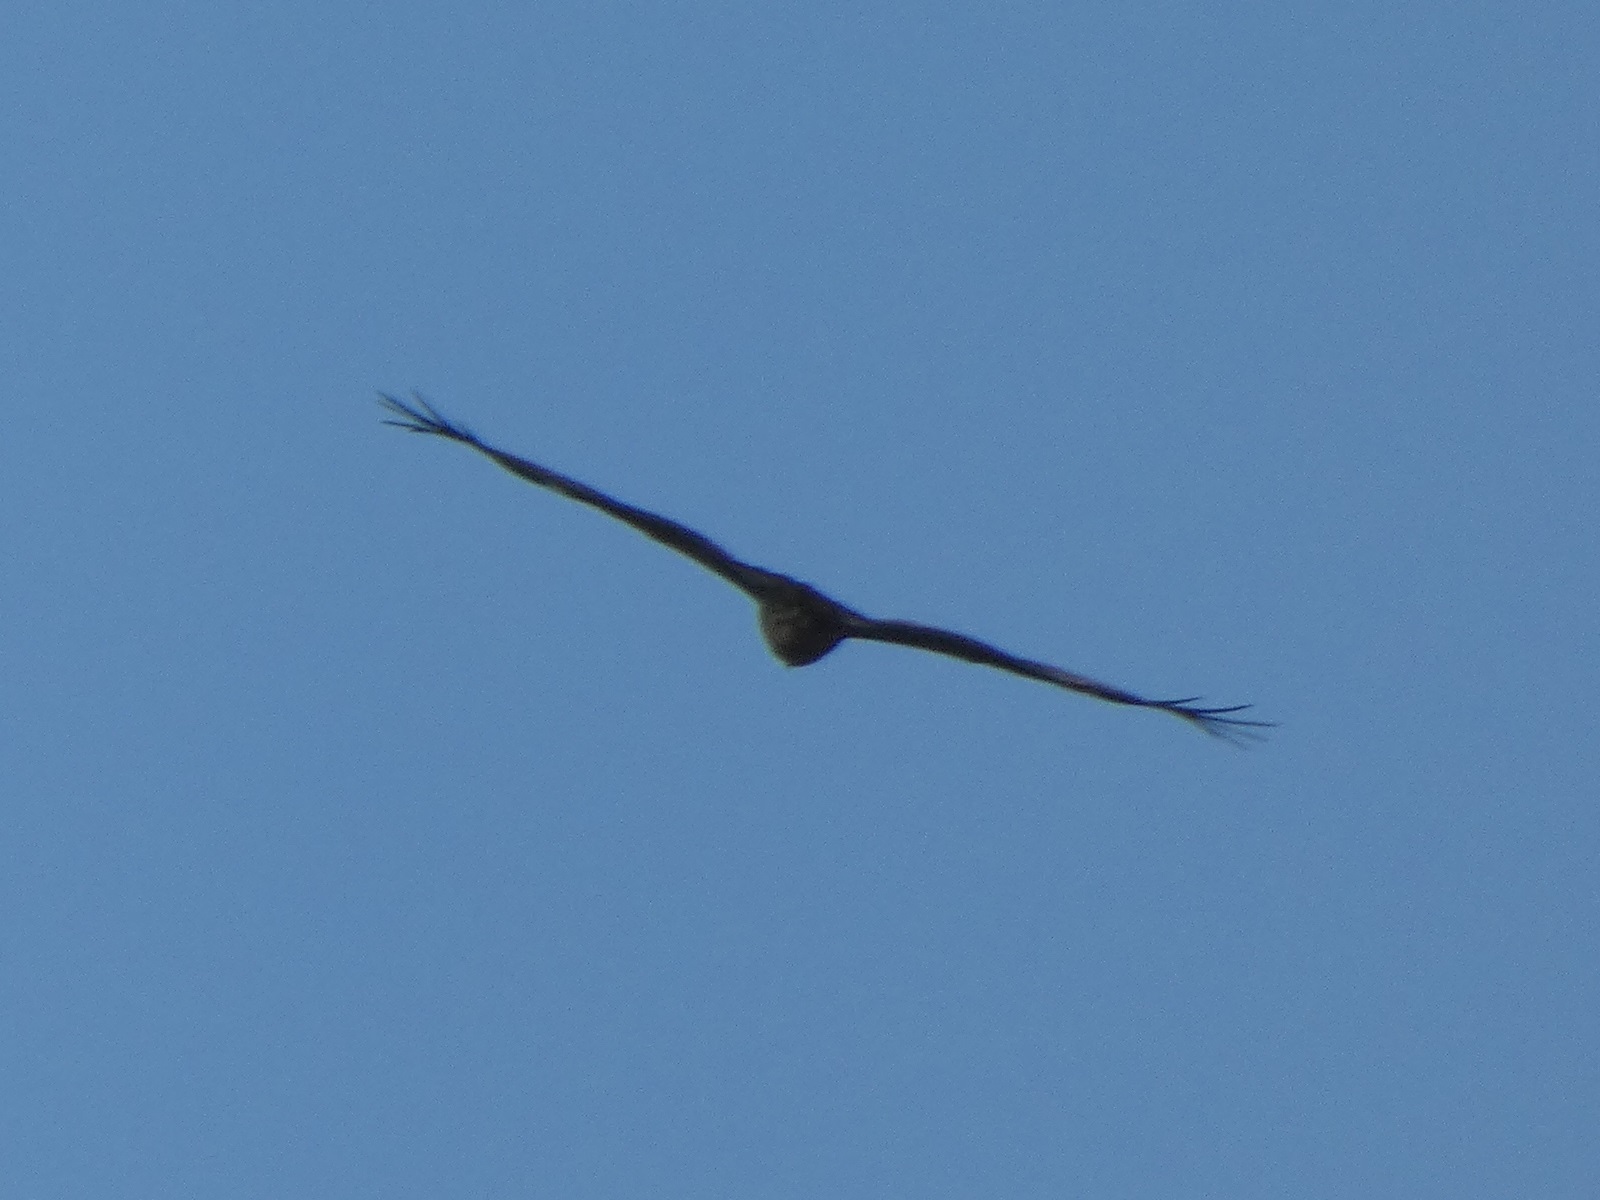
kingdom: Animalia
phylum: Chordata
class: Aves
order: Accipitriformes
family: Accipitridae
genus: Milvus
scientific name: Milvus migrans
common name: Black kite
